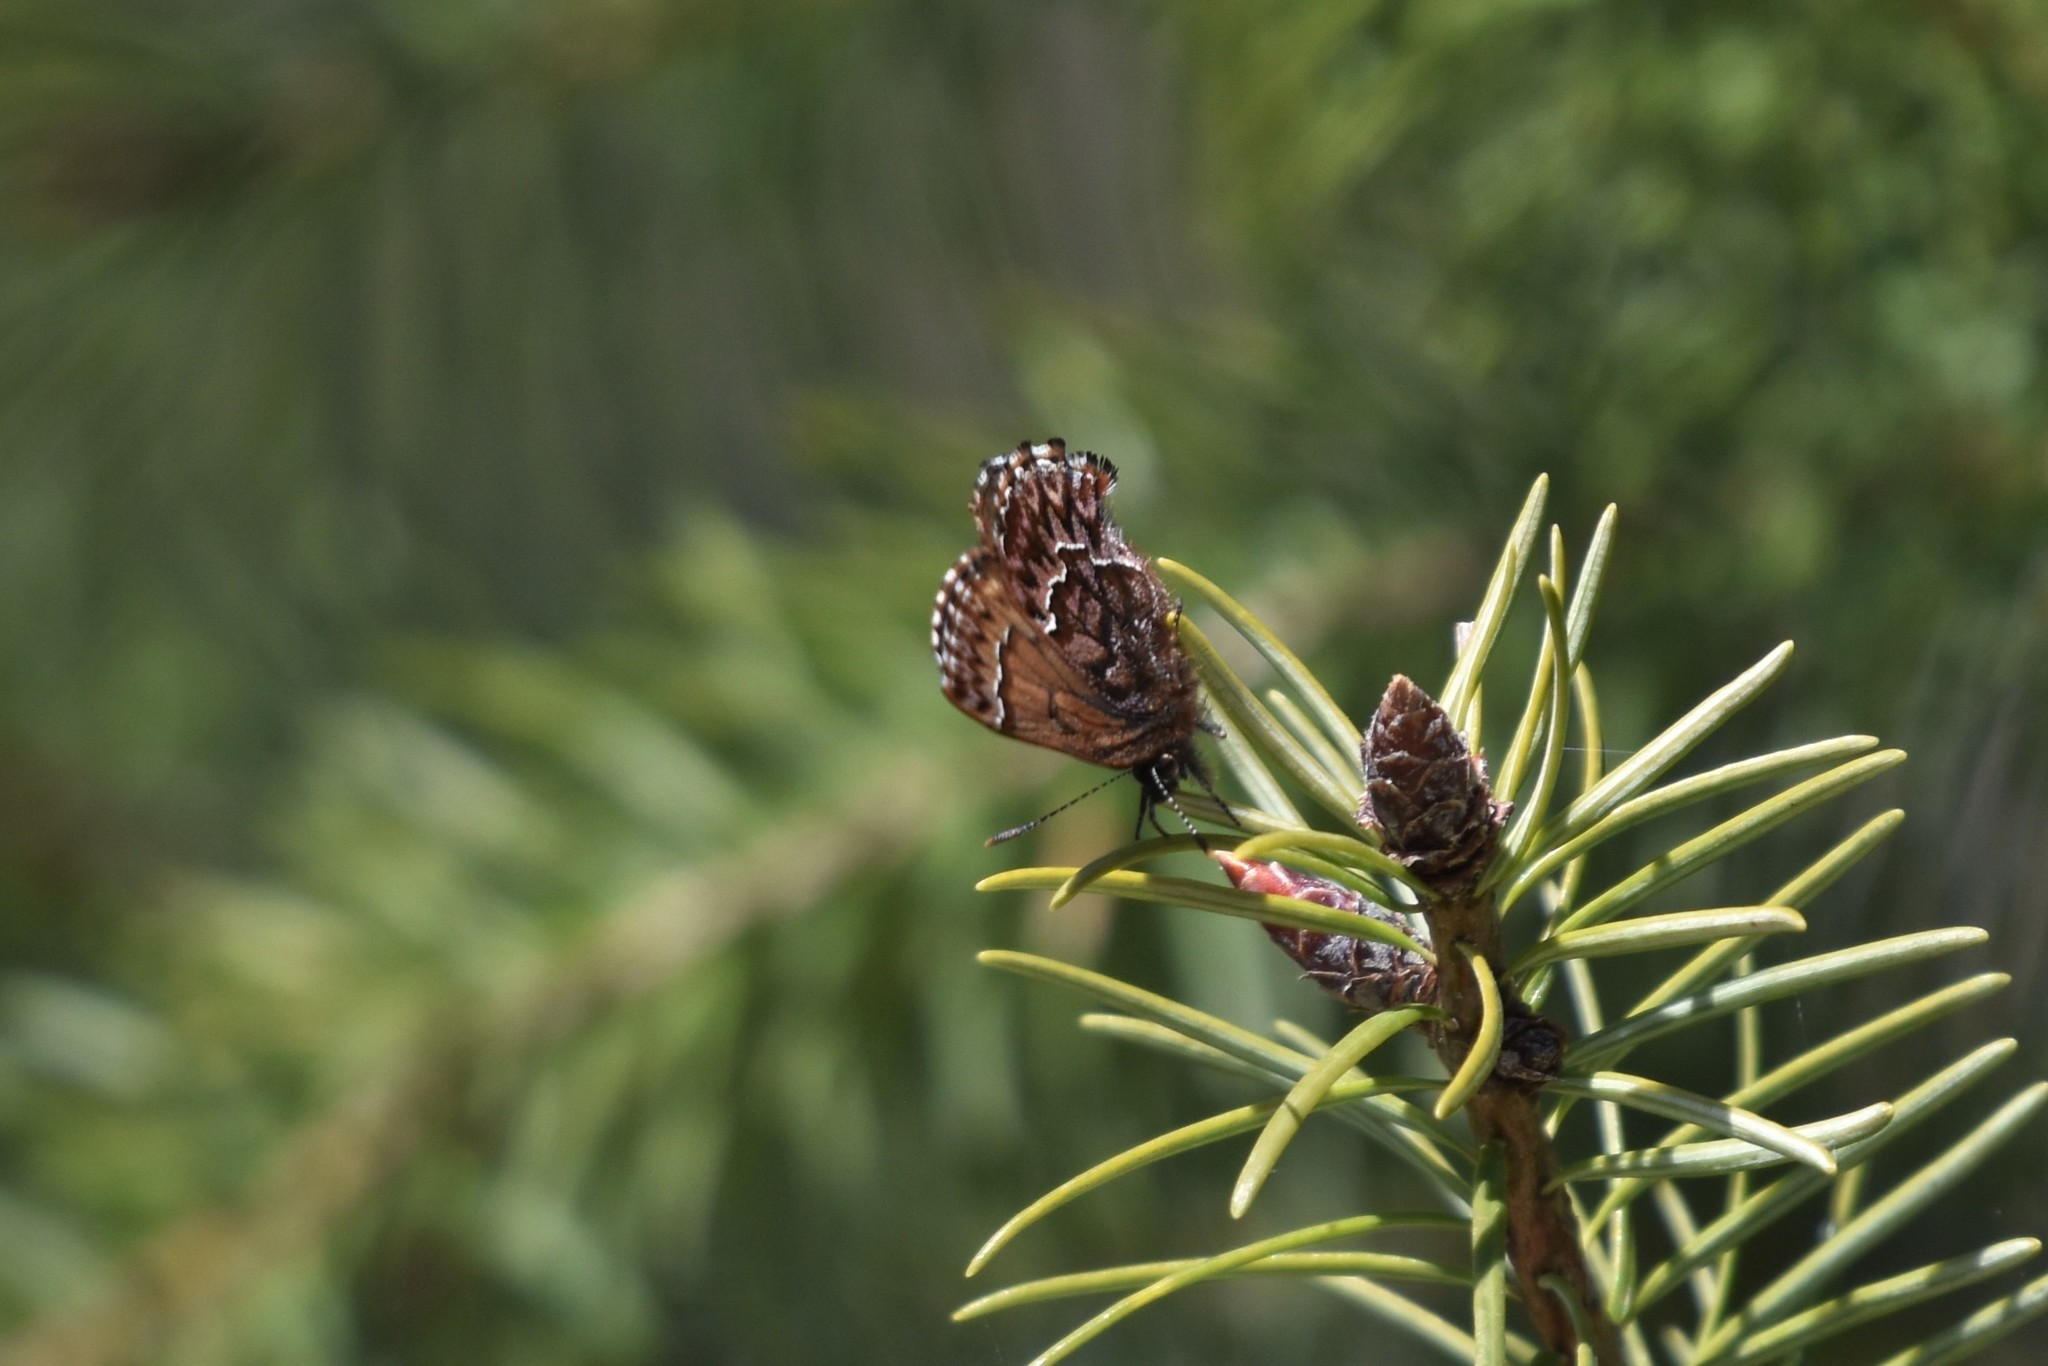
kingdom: Animalia
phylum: Arthropoda
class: Insecta
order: Lepidoptera
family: Lycaenidae
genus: Incisalia
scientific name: Incisalia eryphon
